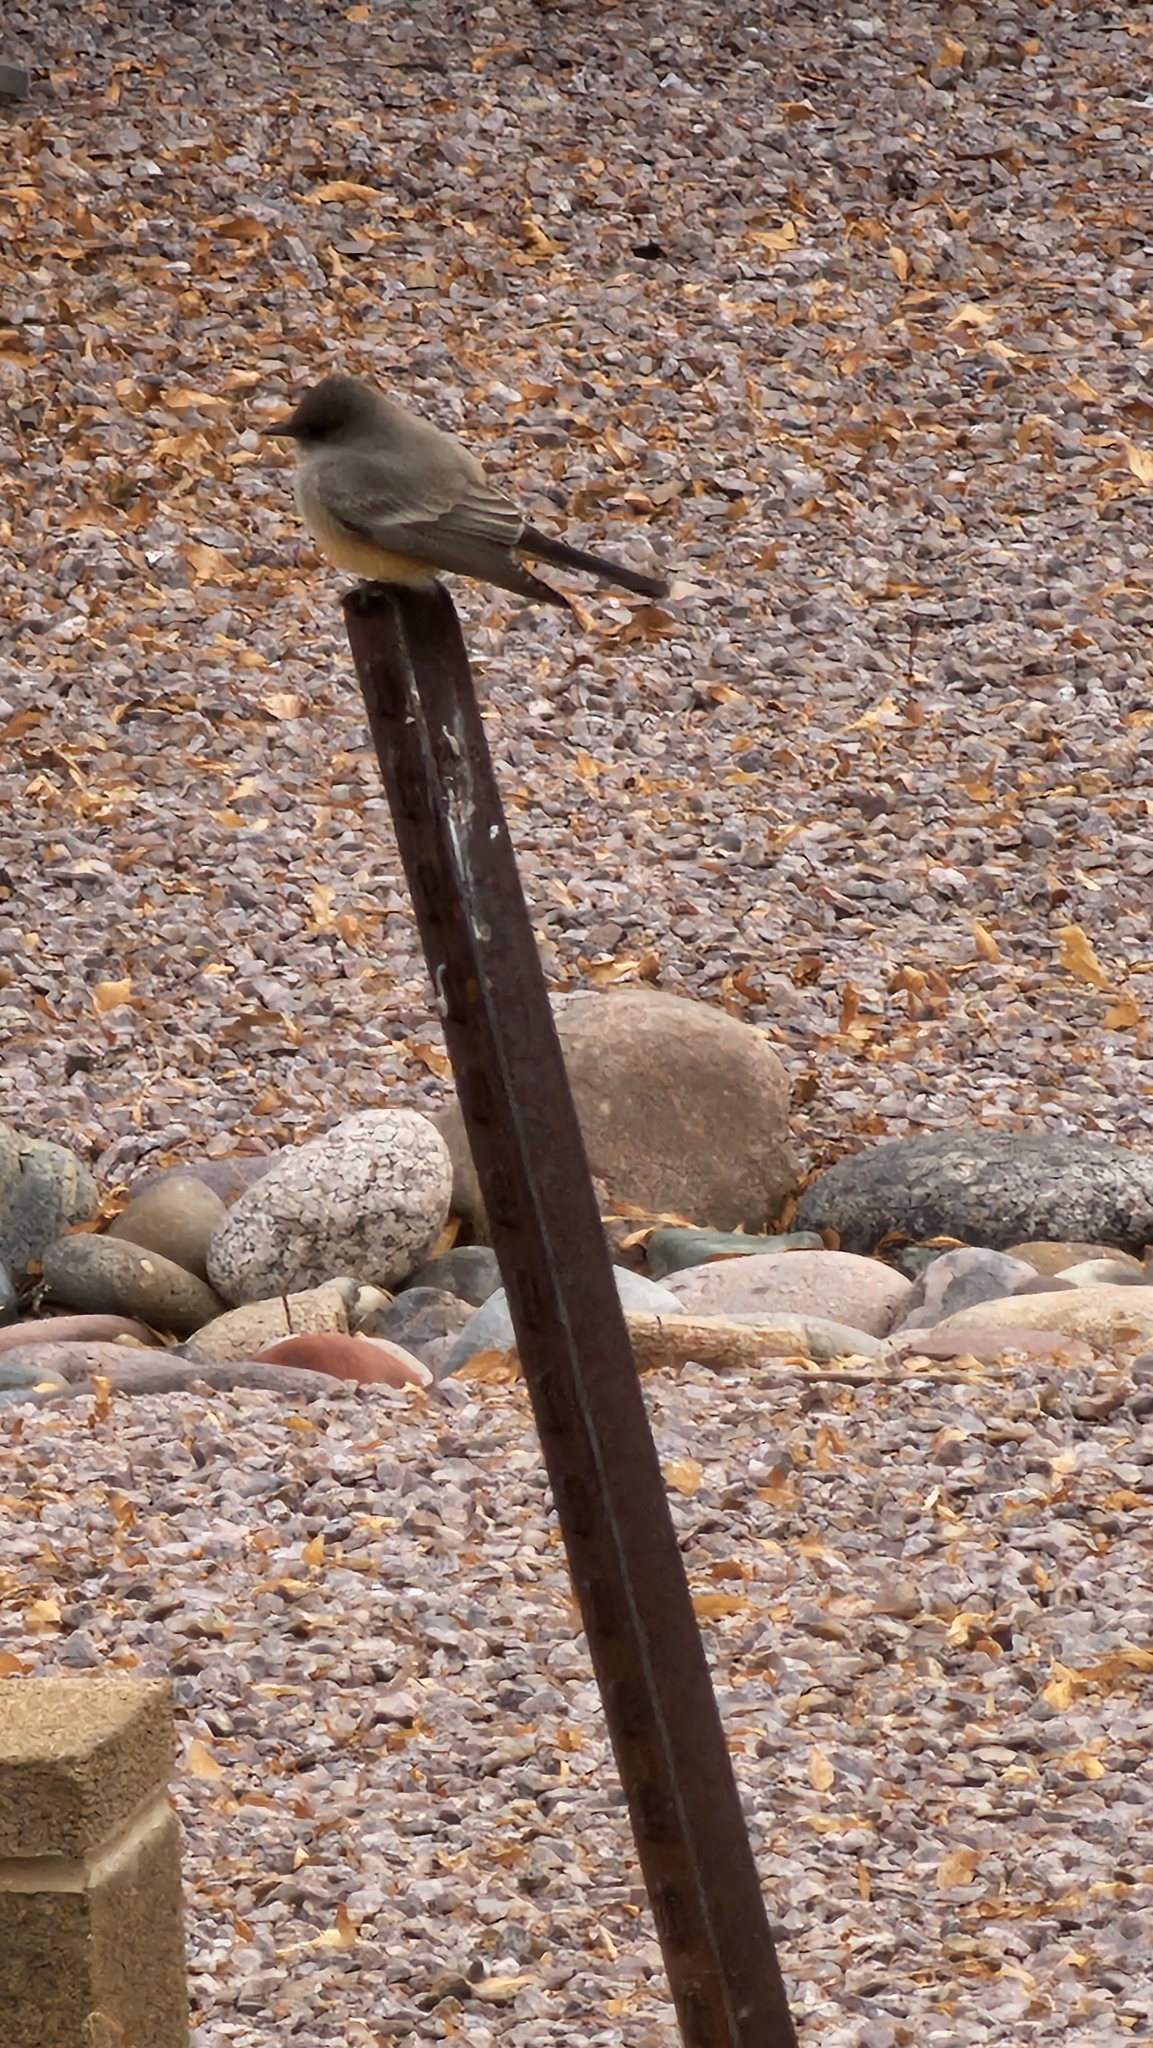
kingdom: Animalia
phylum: Chordata
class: Aves
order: Passeriformes
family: Tyrannidae
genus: Sayornis
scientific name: Sayornis saya
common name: Say's phoebe
